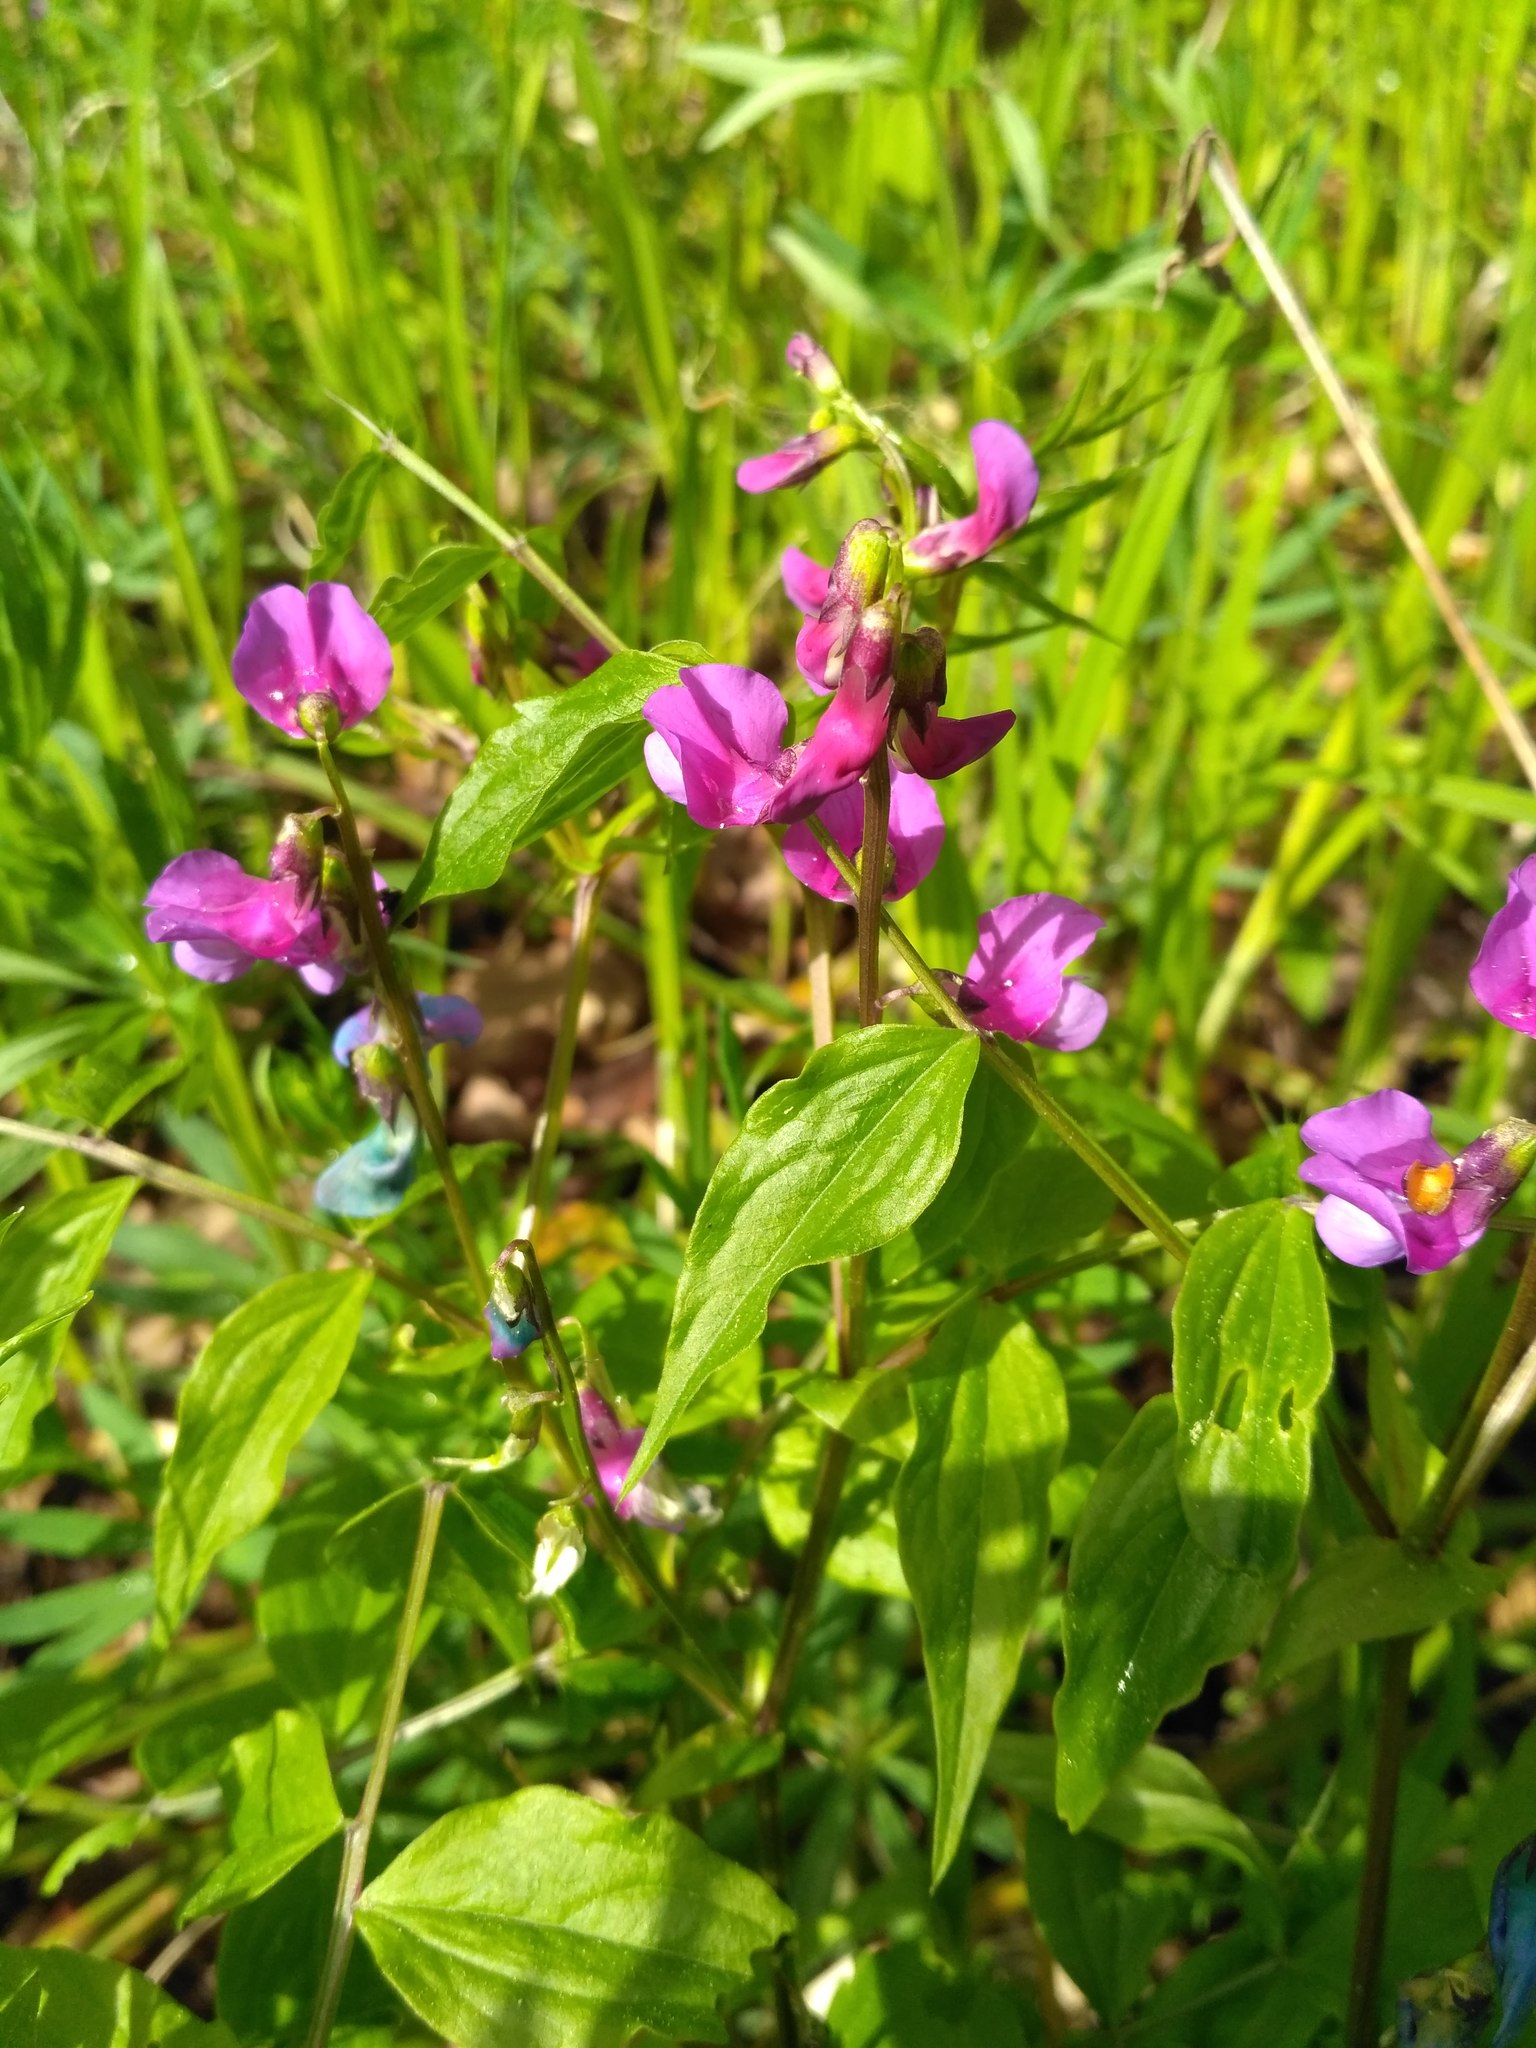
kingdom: Plantae
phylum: Tracheophyta
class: Magnoliopsida
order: Fabales
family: Fabaceae
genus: Lathyrus
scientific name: Lathyrus vernus
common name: Spring pea
